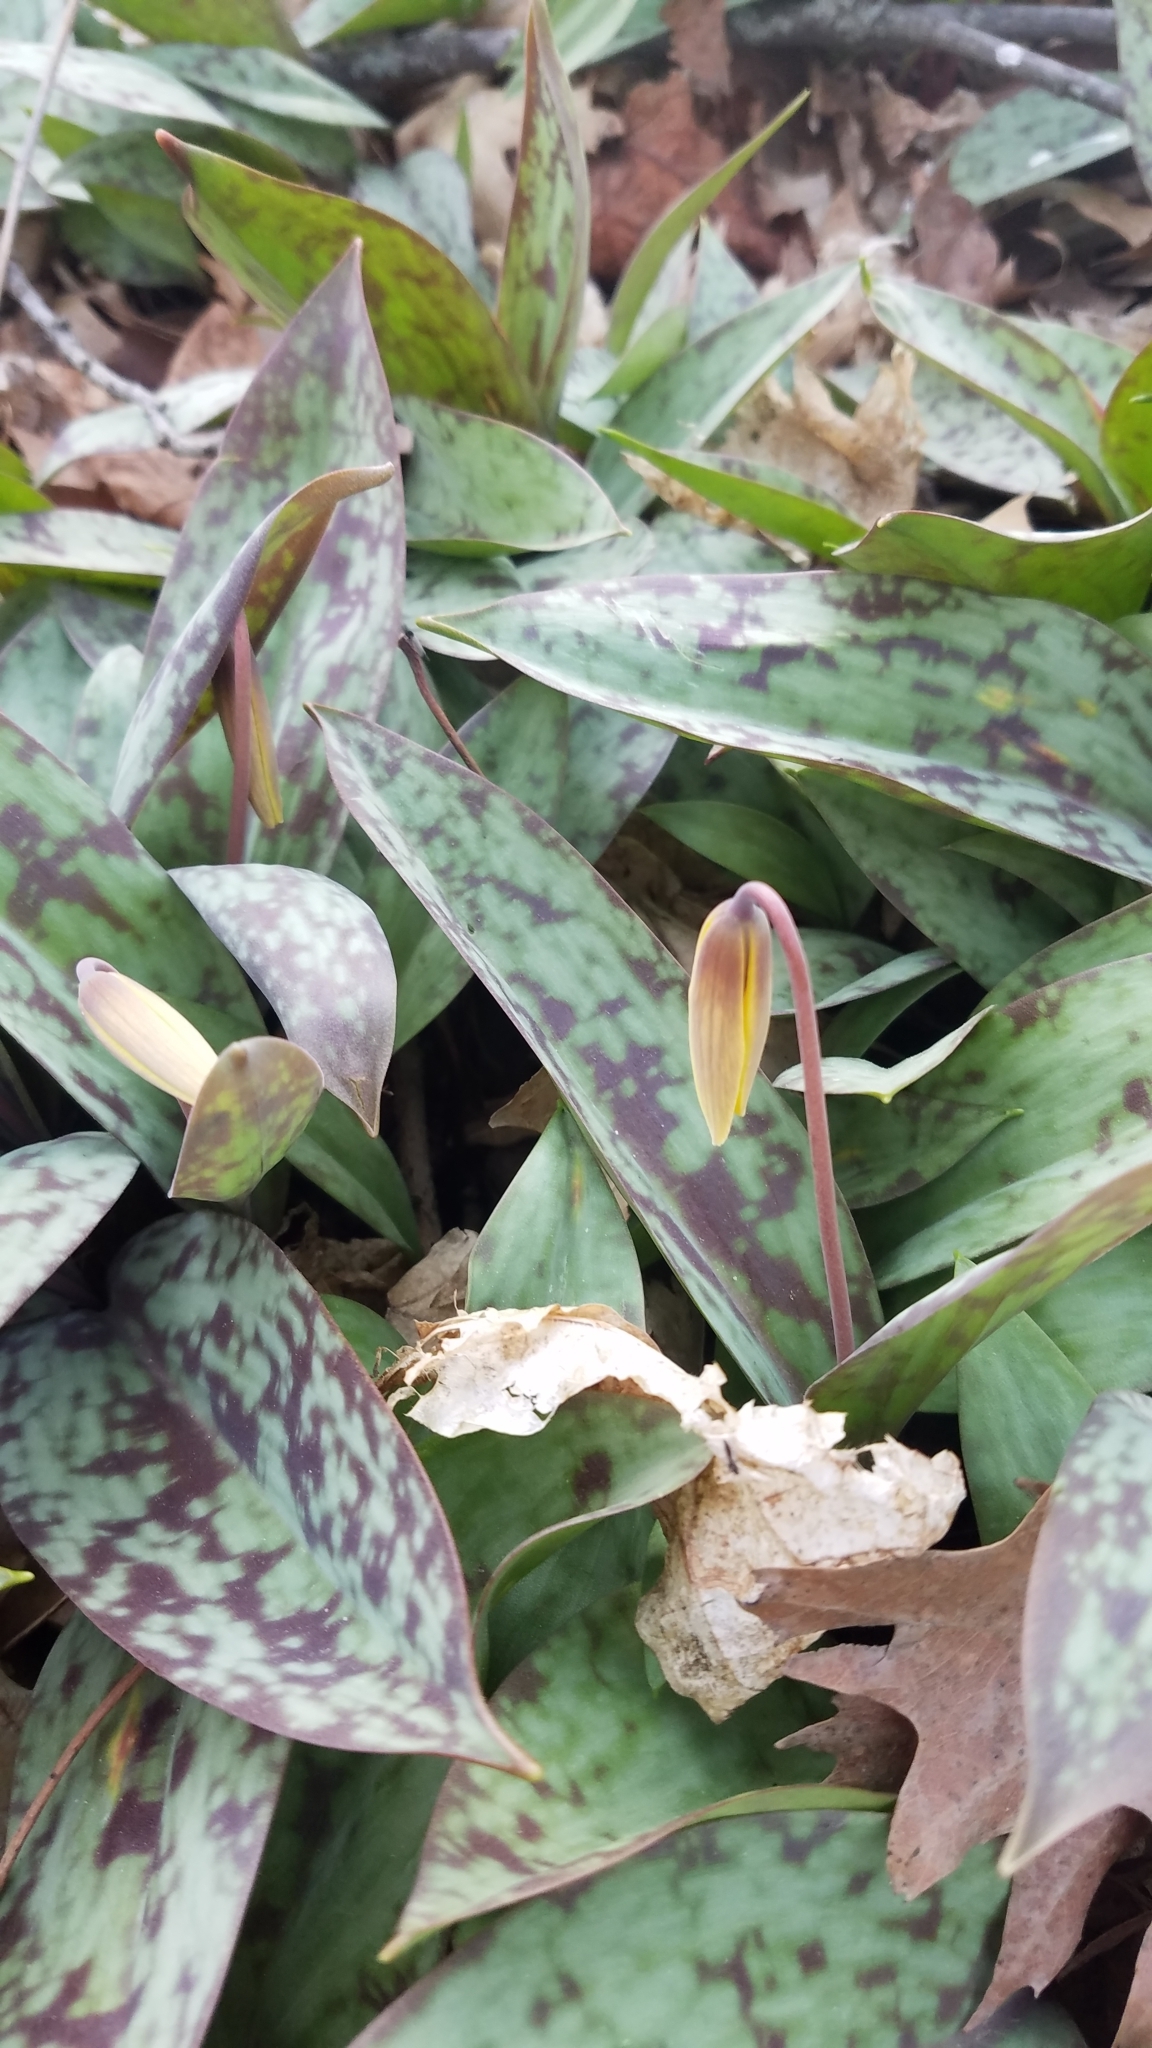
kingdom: Plantae
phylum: Tracheophyta
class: Liliopsida
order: Liliales
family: Liliaceae
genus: Erythronium
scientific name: Erythronium americanum
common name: Yellow adder's-tongue
